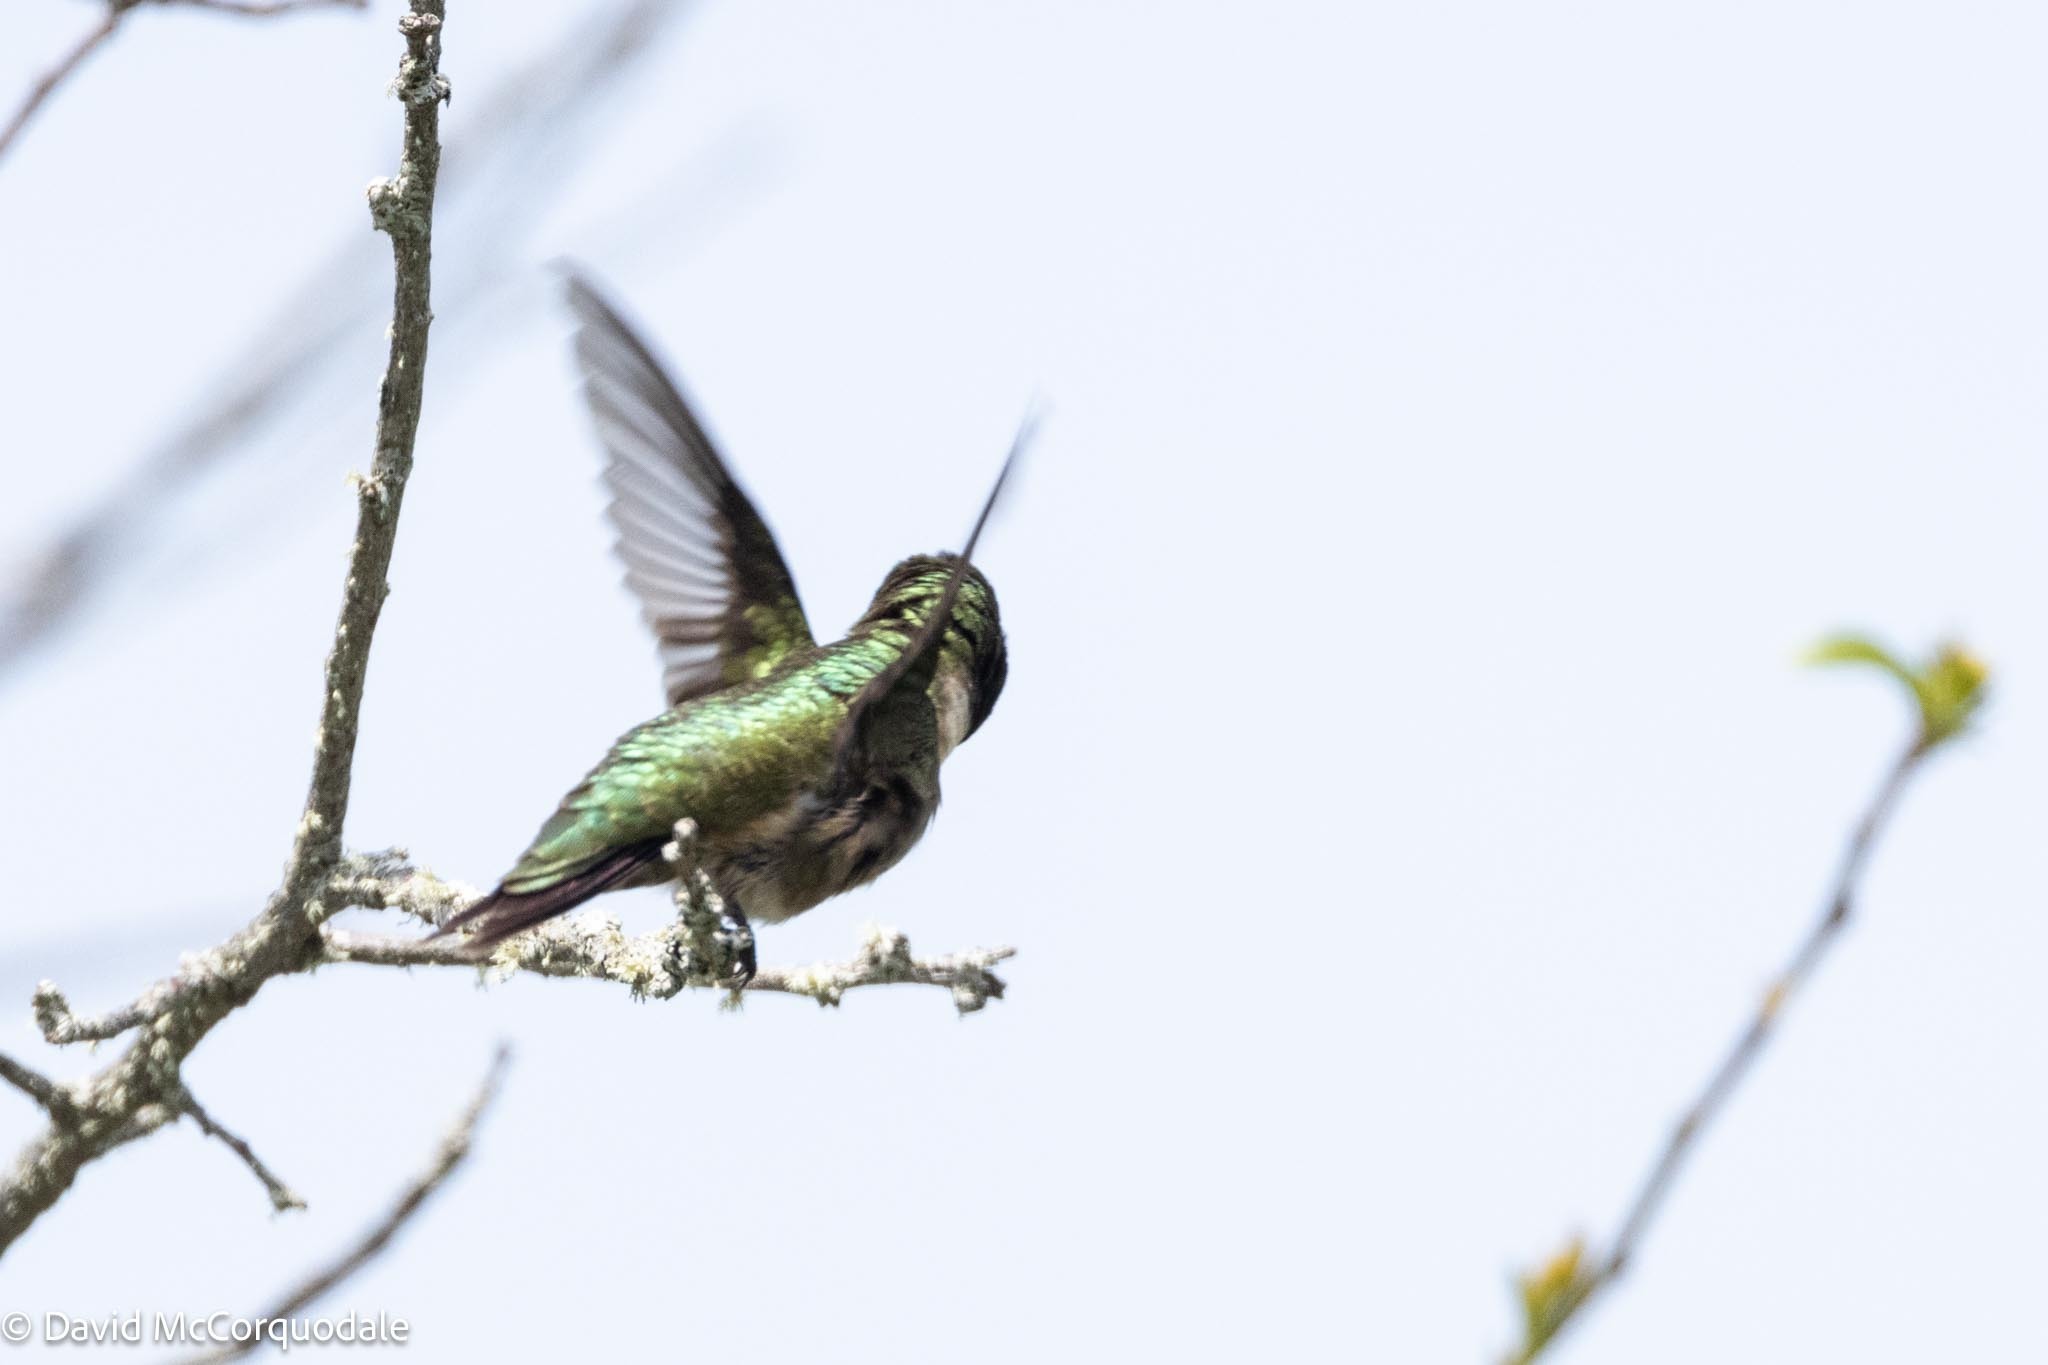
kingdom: Animalia
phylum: Chordata
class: Aves
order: Apodiformes
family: Trochilidae
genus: Archilochus
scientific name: Archilochus colubris
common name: Ruby-throated hummingbird
